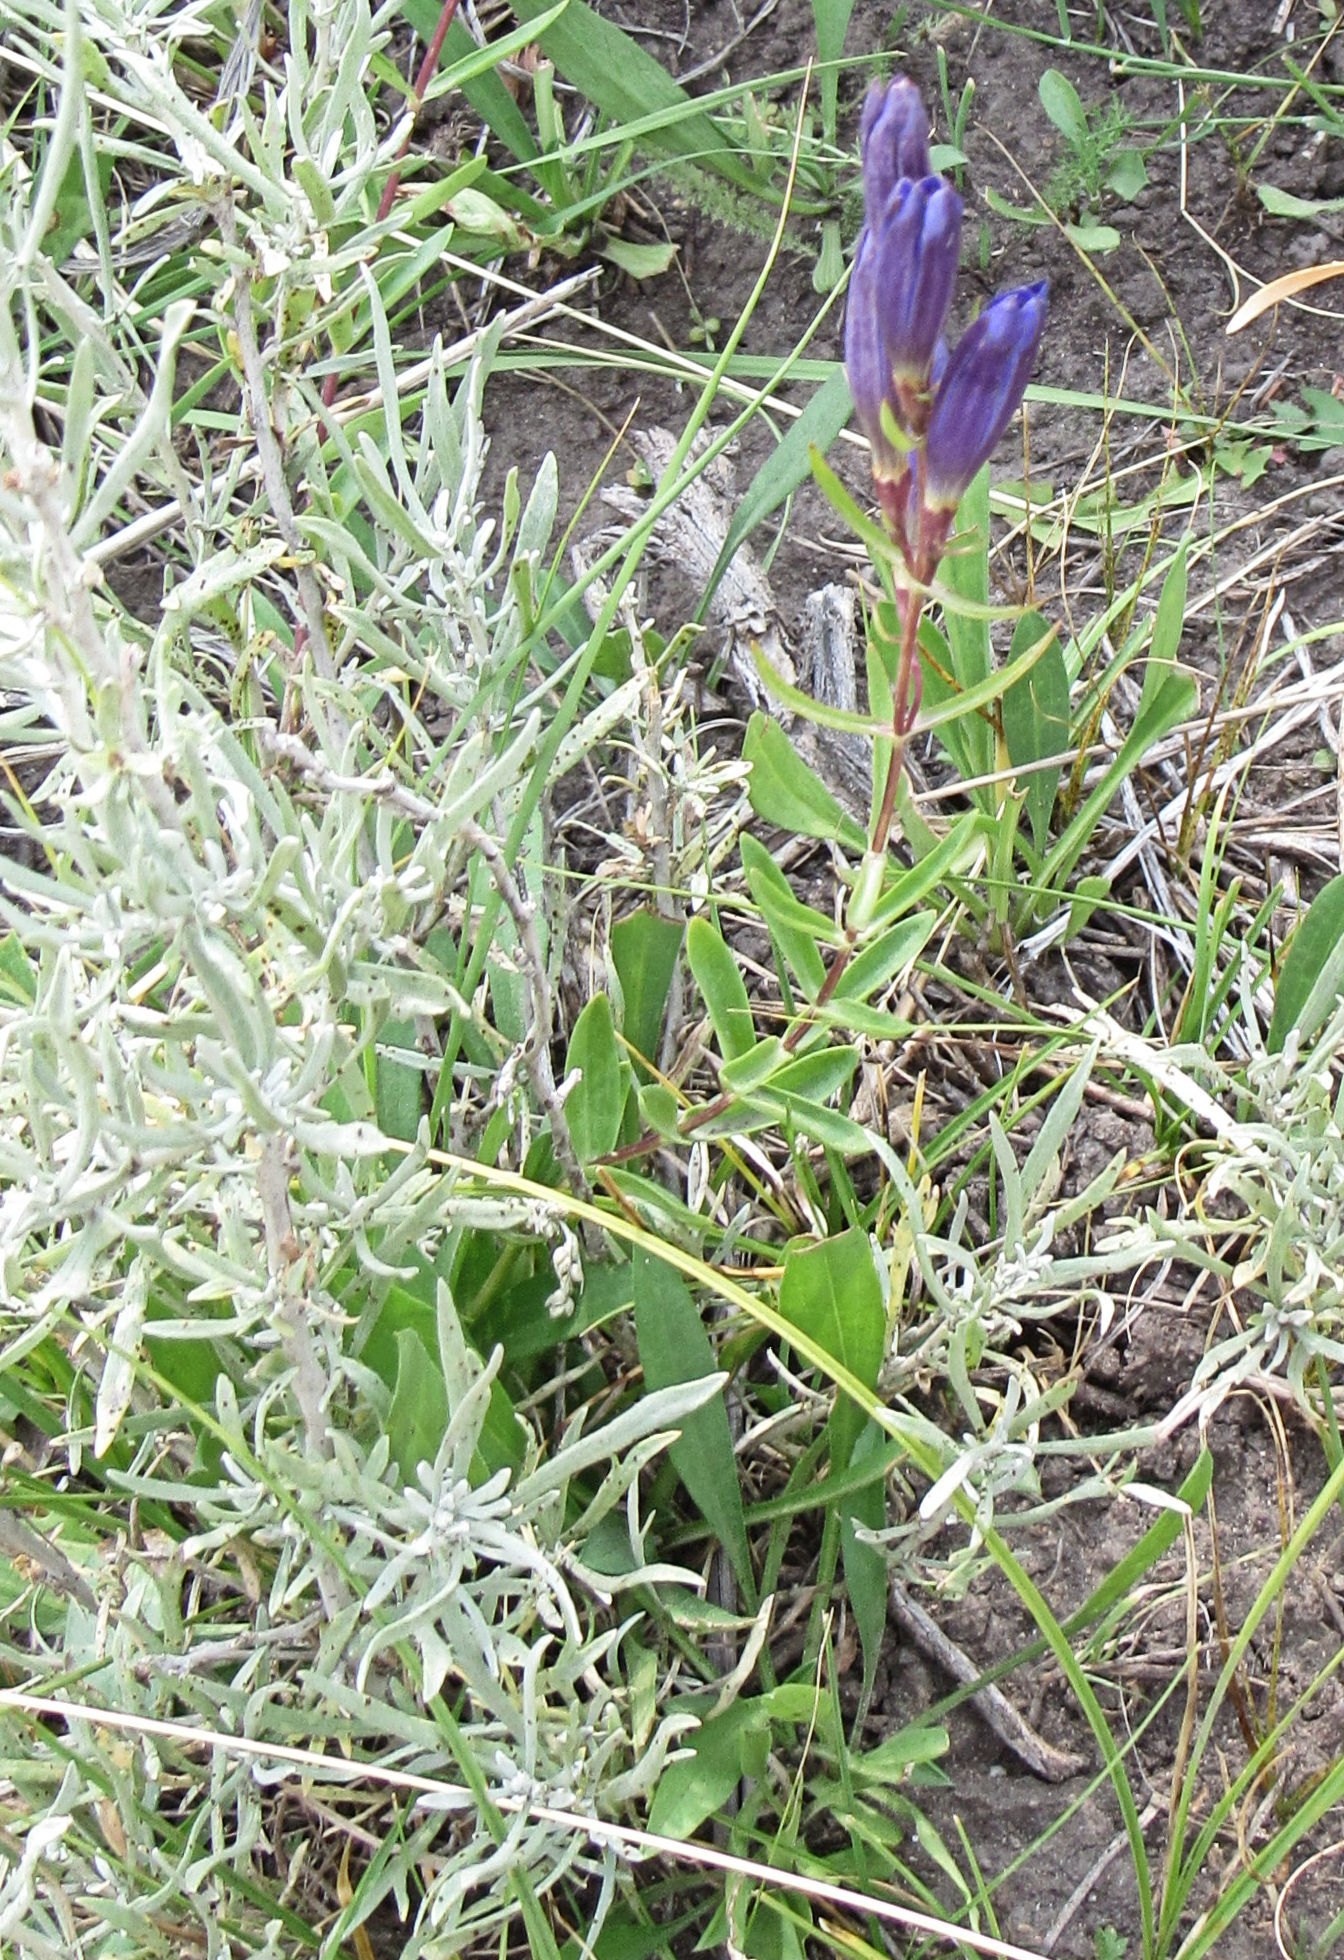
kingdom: Plantae
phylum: Tracheophyta
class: Magnoliopsida
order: Gentianales
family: Gentianaceae
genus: Gentiana
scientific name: Gentiana affinis
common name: Rocky mountain gentian
